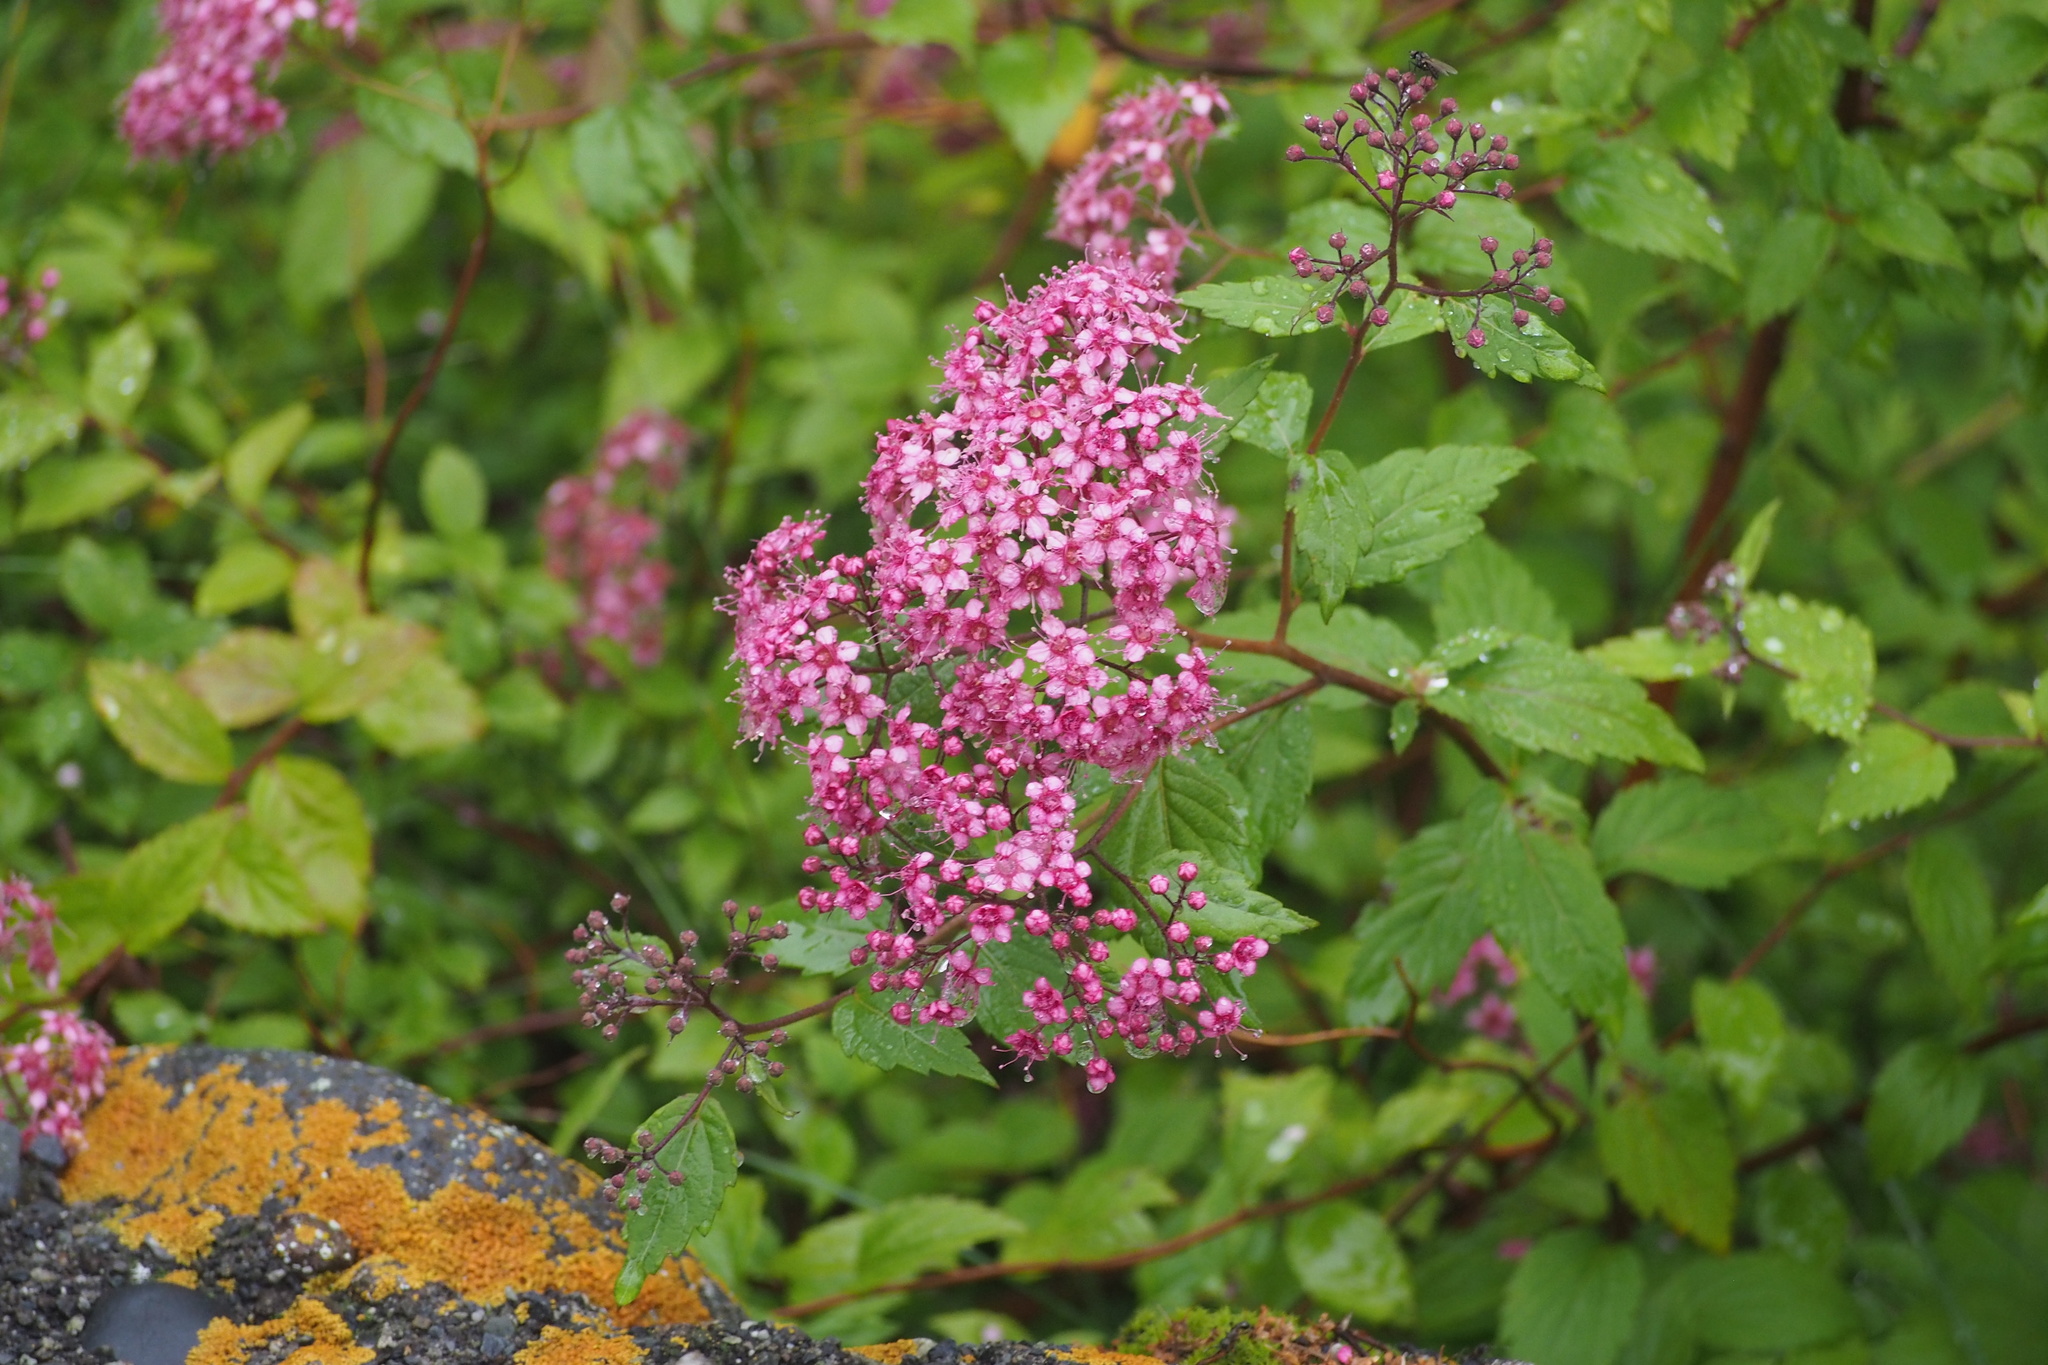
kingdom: Plantae
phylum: Tracheophyta
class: Magnoliopsida
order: Rosales
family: Rosaceae
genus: Spiraea
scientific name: Spiraea japonica
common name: Japanese spiraea
